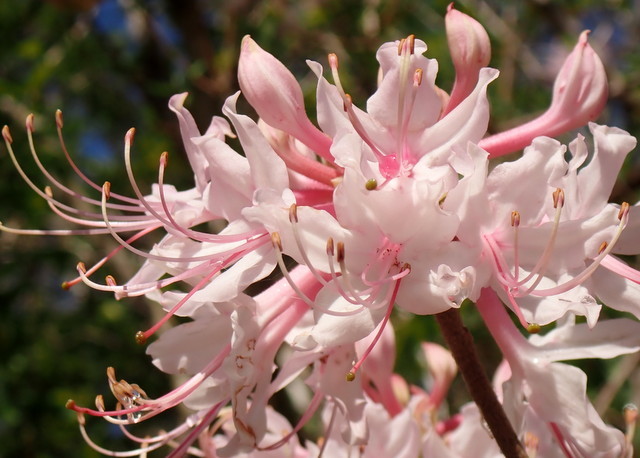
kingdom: Plantae
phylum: Tracheophyta
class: Magnoliopsida
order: Ericales
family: Ericaceae
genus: Rhododendron
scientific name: Rhododendron canescens
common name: Mountain azalea
